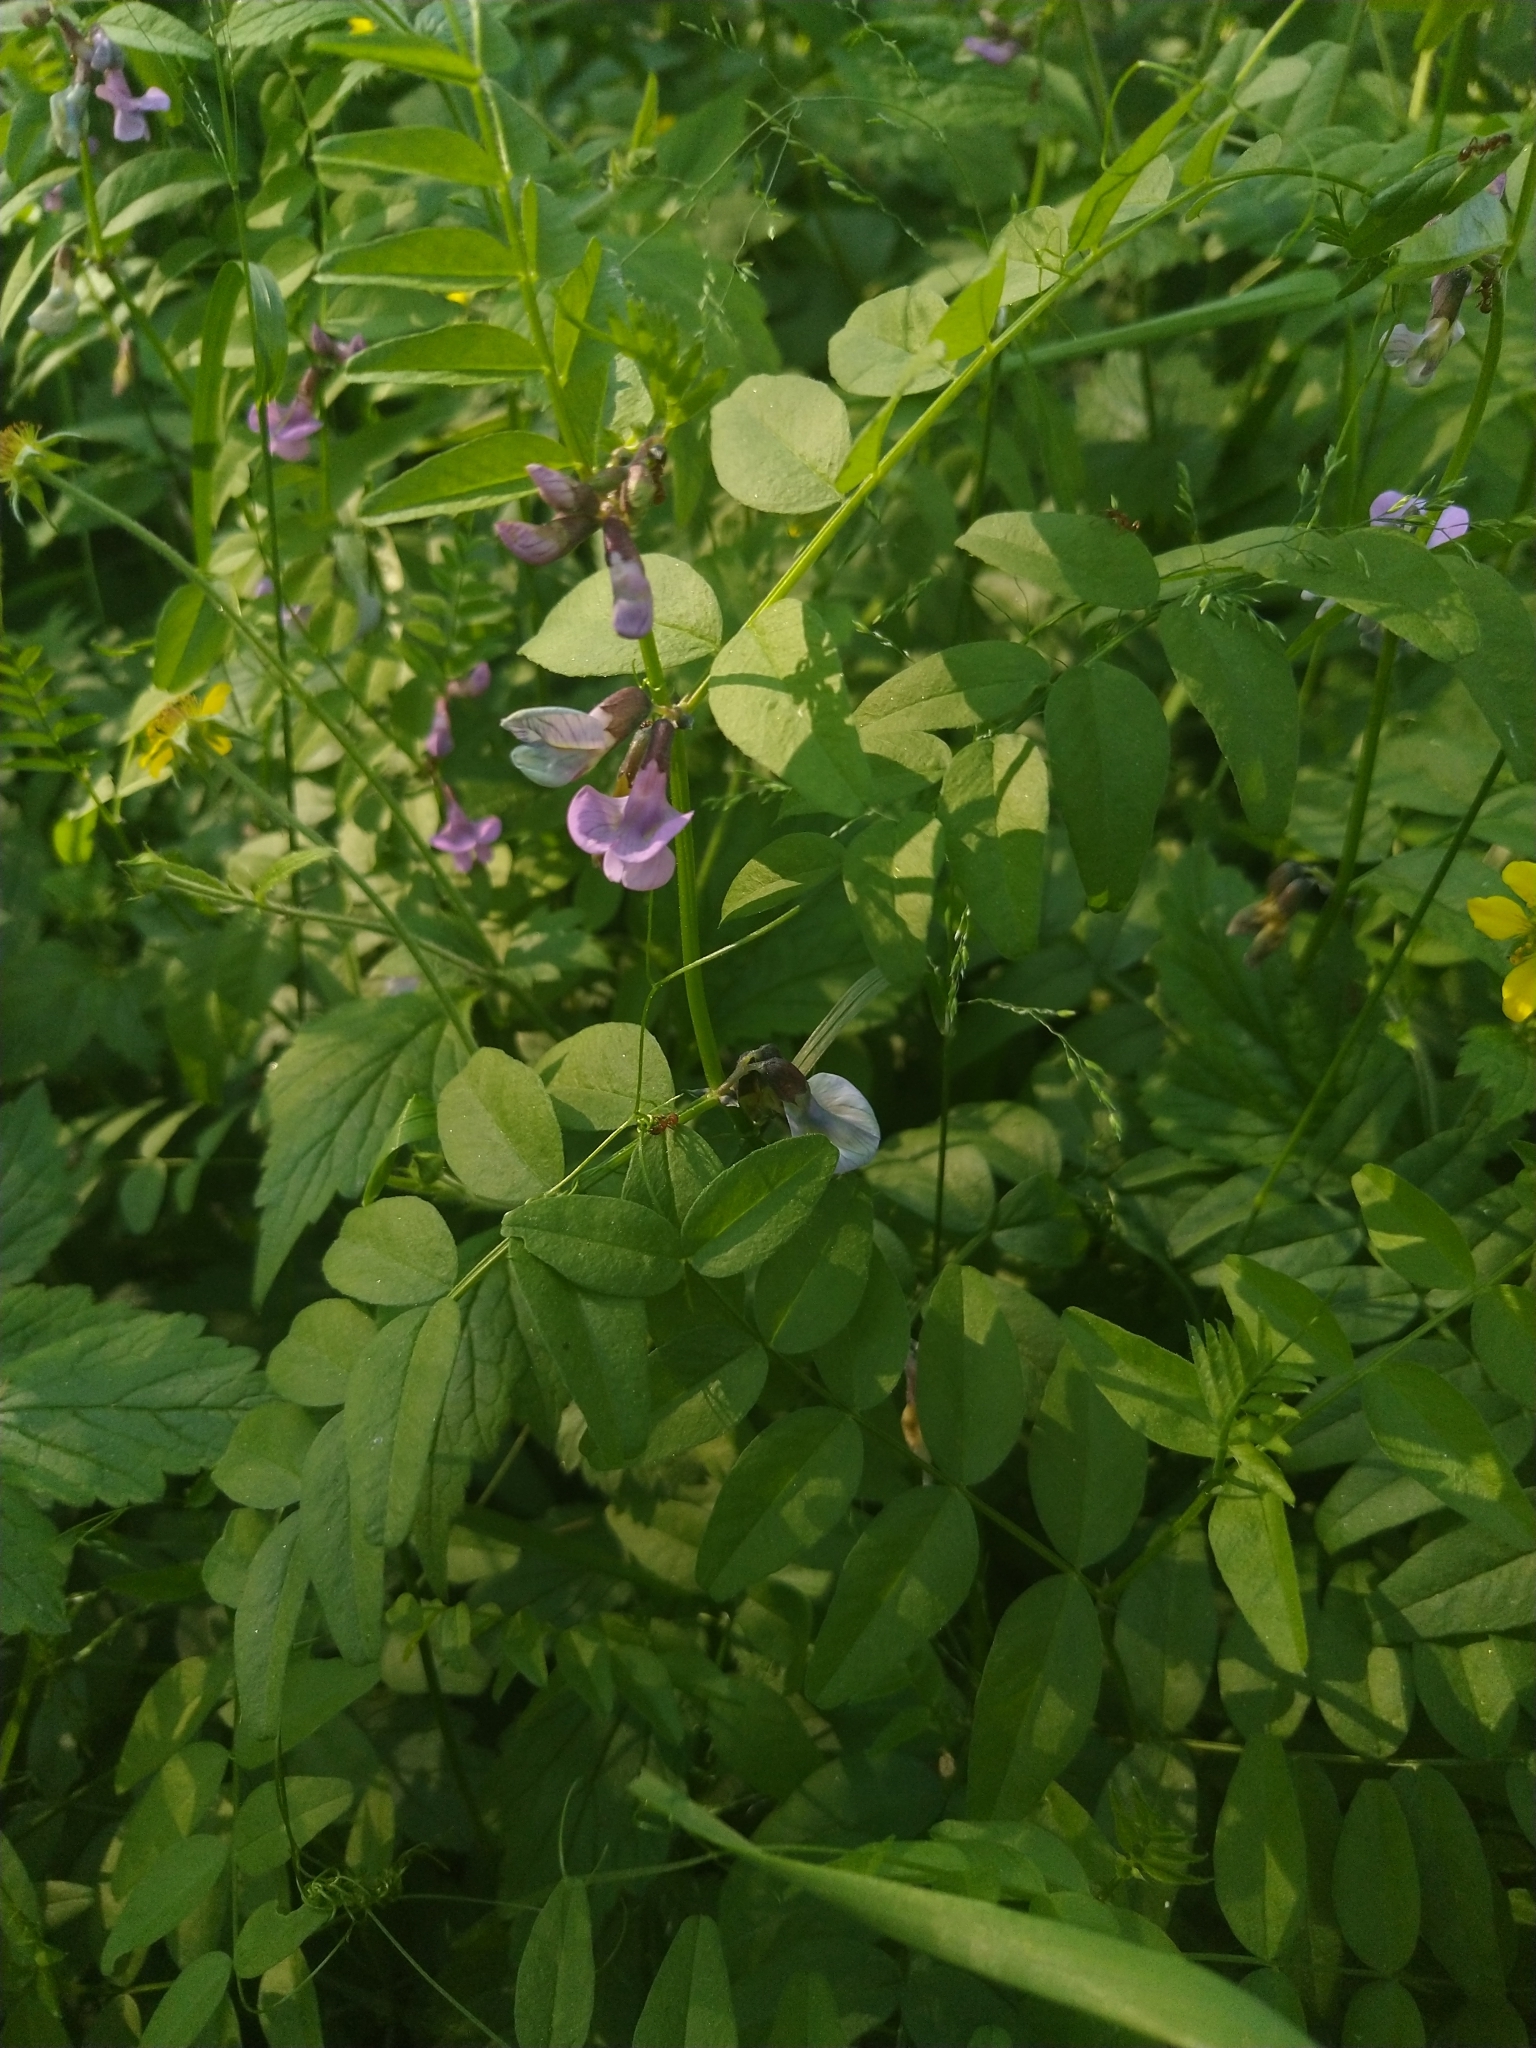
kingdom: Plantae
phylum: Tracheophyta
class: Magnoliopsida
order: Fabales
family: Fabaceae
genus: Vicia
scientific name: Vicia sepium
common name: Bush vetch
